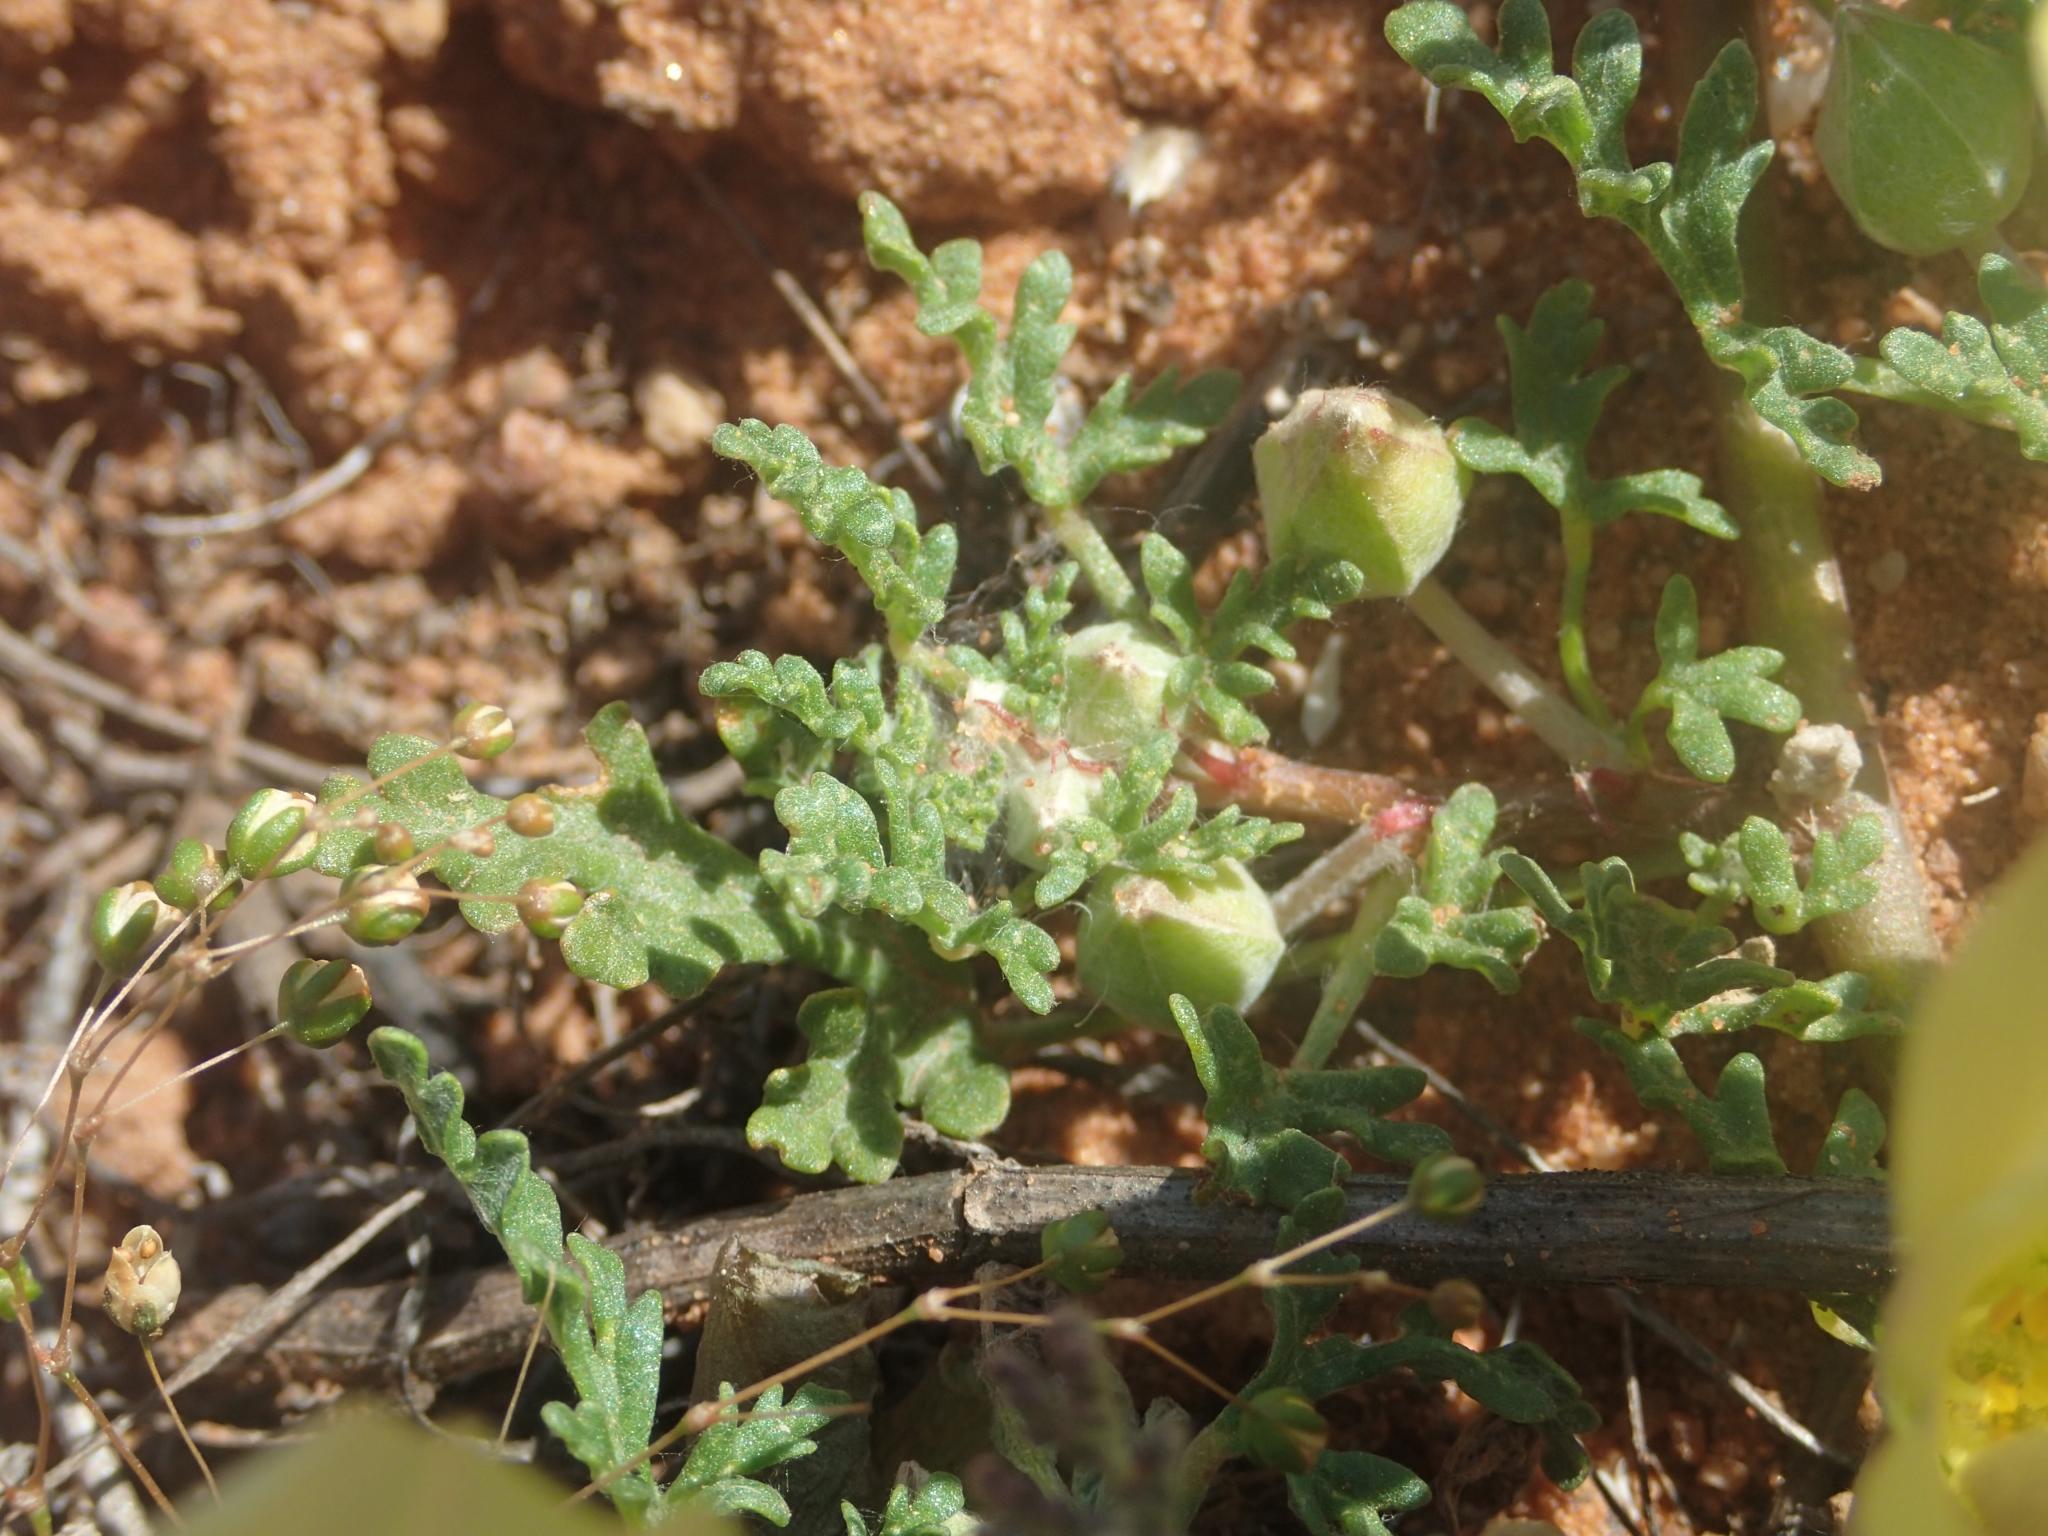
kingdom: Plantae
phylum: Tracheophyta
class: Magnoliopsida
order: Malvales
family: Neuradaceae
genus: Grielum
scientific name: Grielum humifusum
